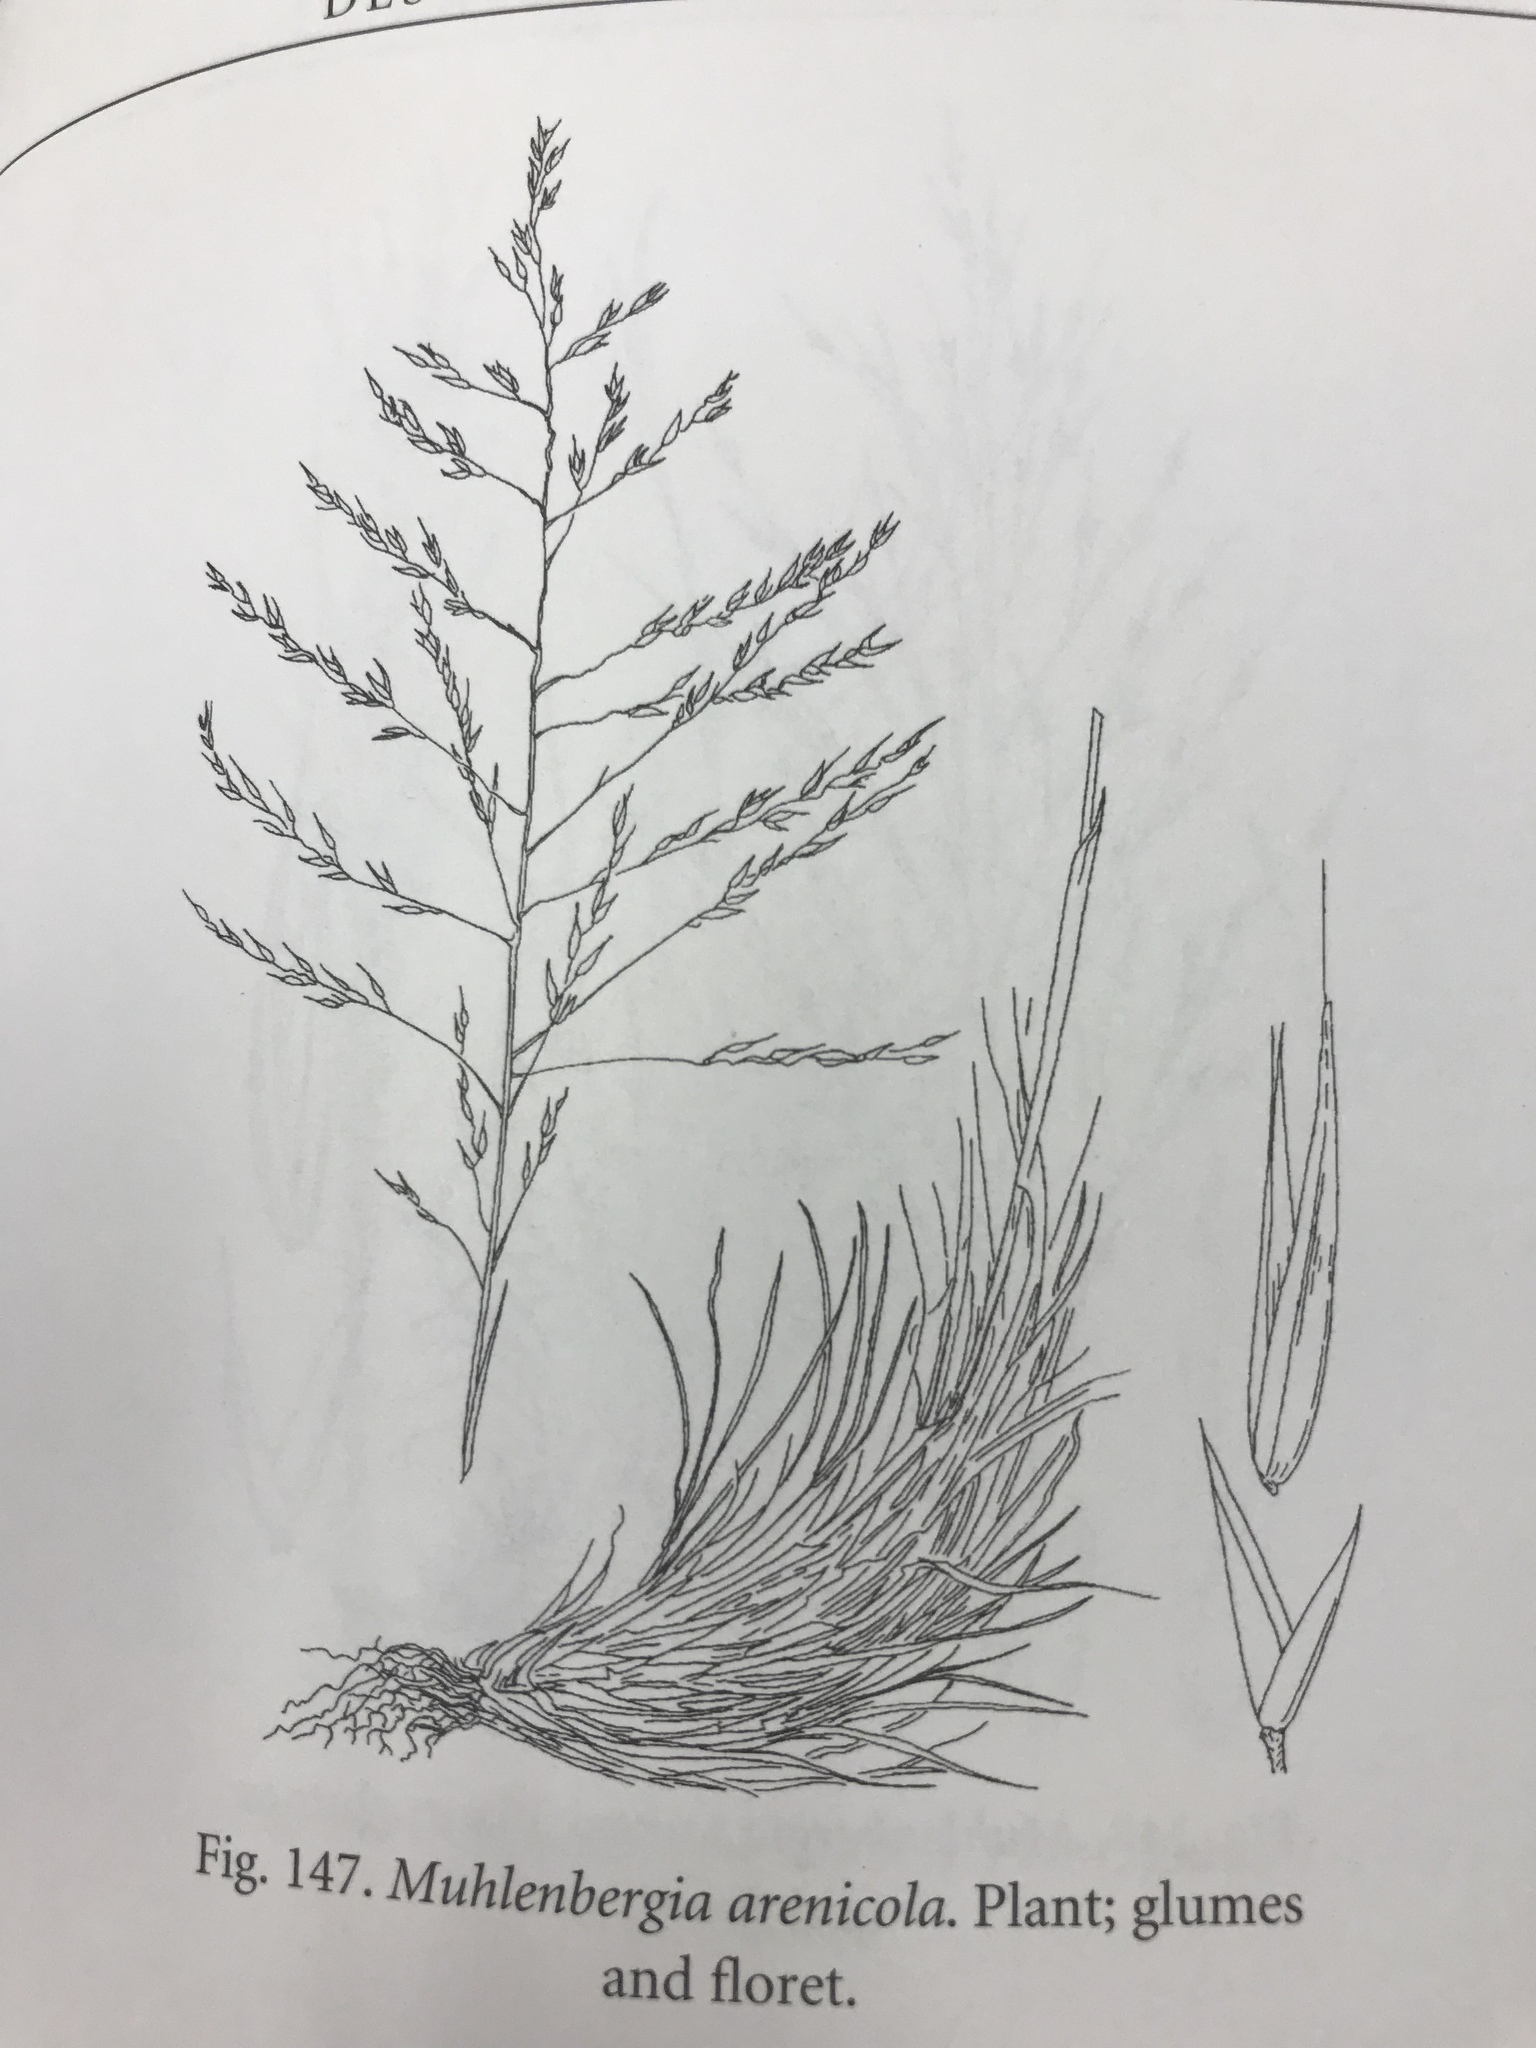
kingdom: Plantae
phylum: Tracheophyta
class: Liliopsida
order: Poales
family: Poaceae
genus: Muhlenbergia
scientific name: Muhlenbergia arenicola
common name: Sand muhly
